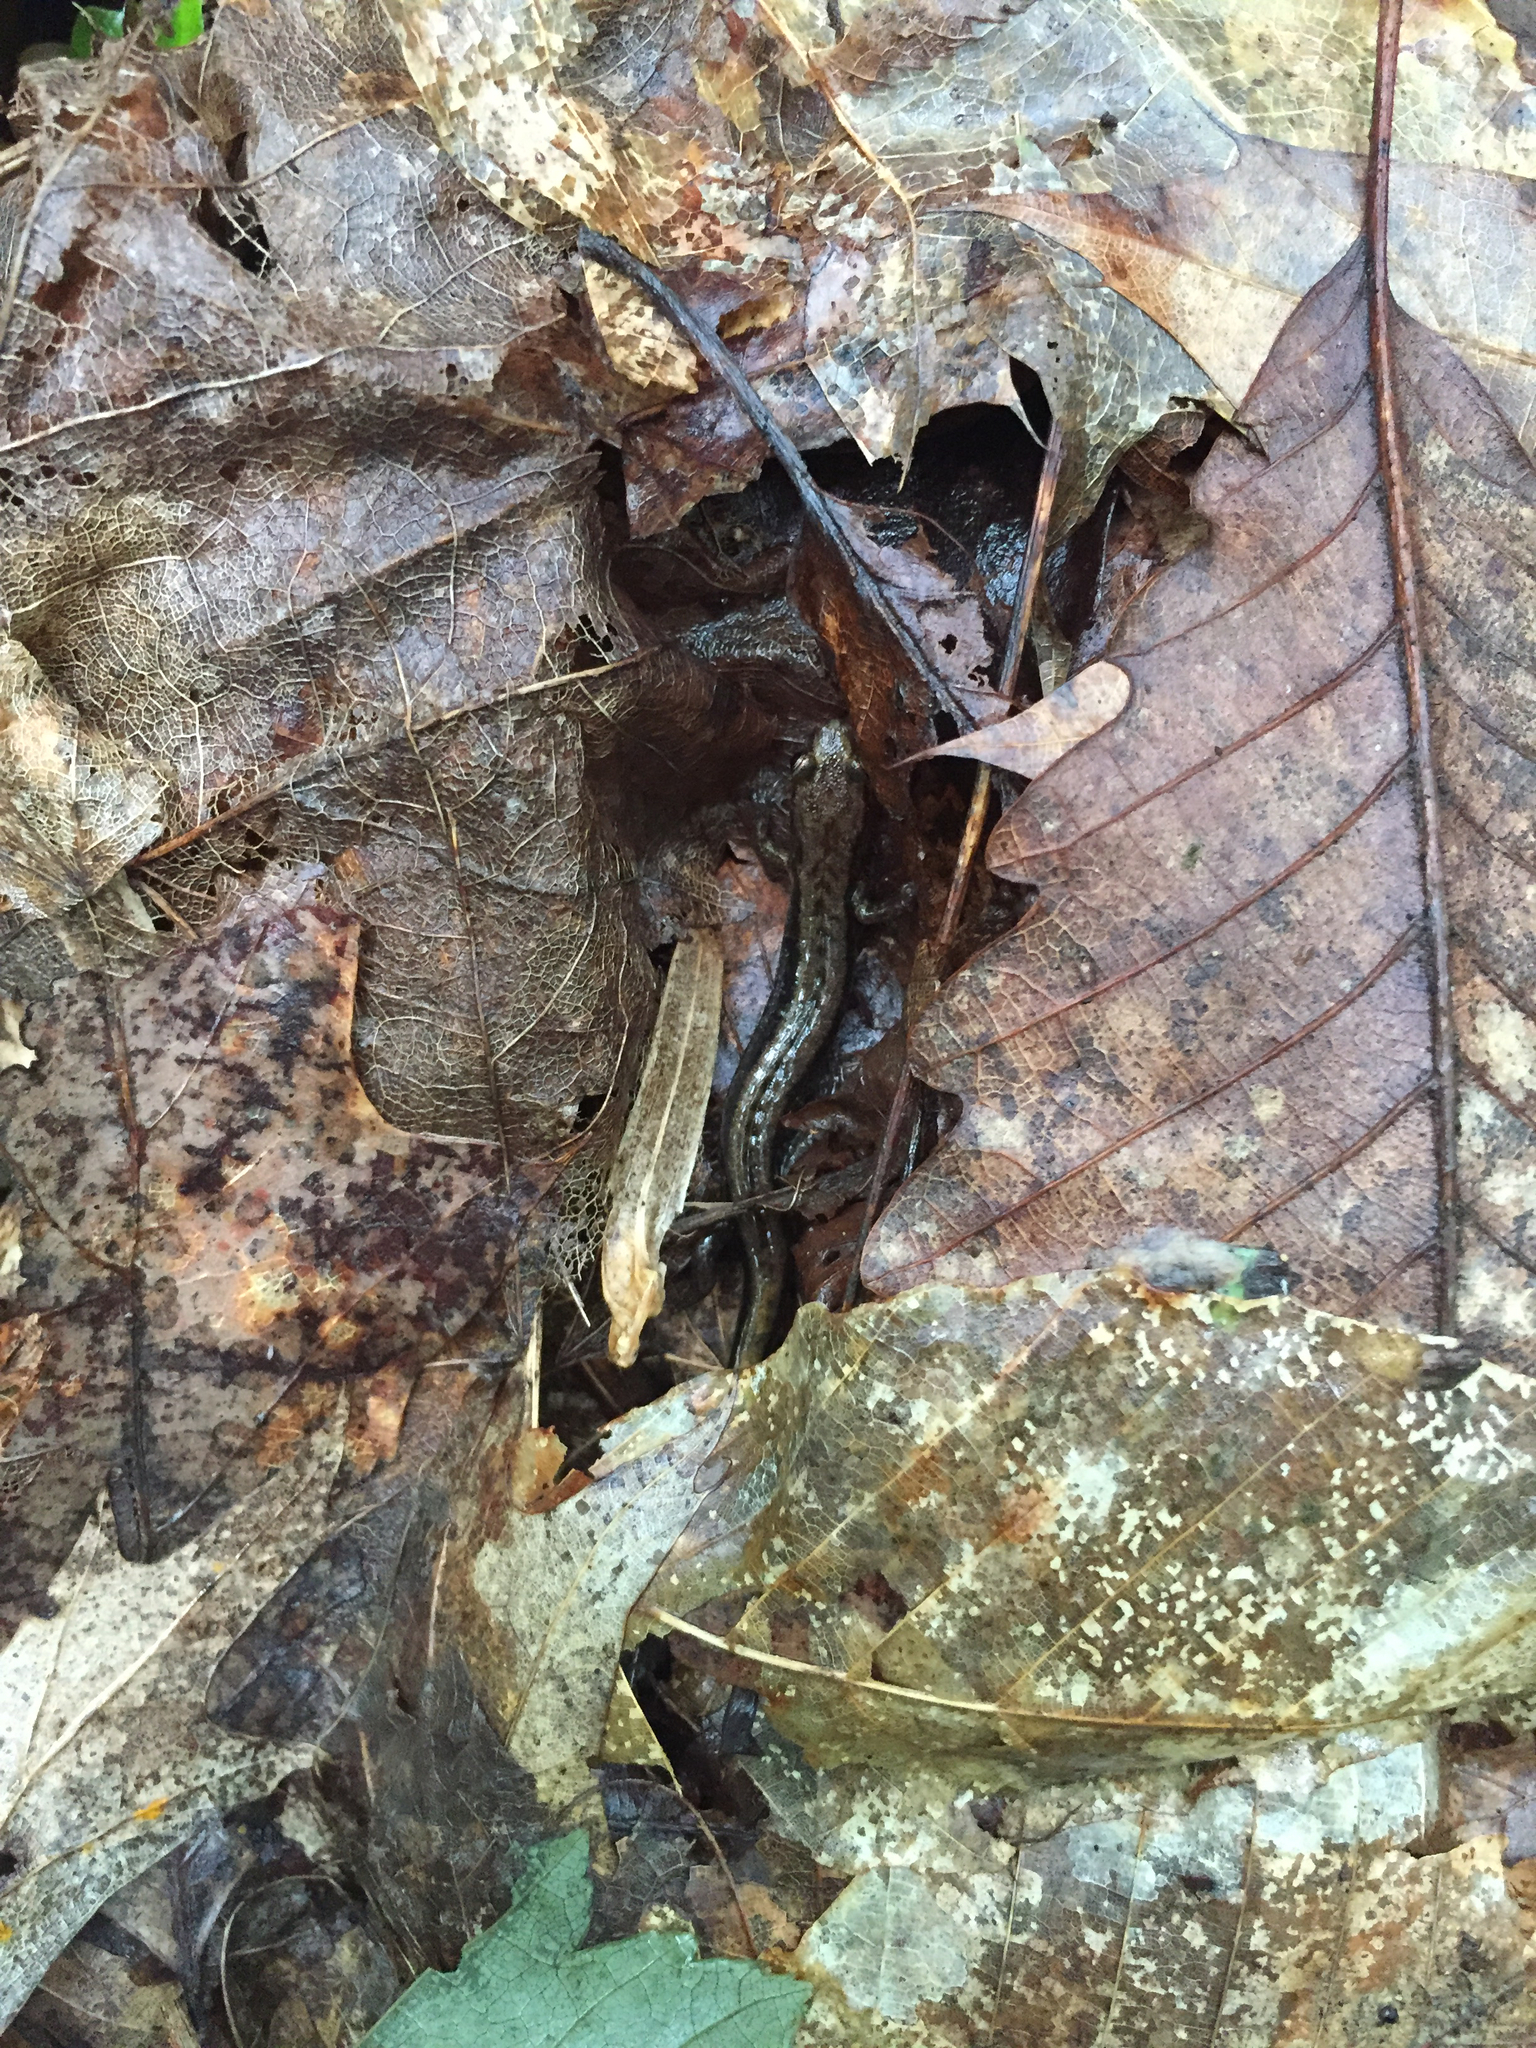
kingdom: Animalia
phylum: Chordata
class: Amphibia
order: Caudata
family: Plethodontidae
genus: Desmognathus
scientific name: Desmognathus ochrophaeus
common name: Allegheny mountain dusky salamander
